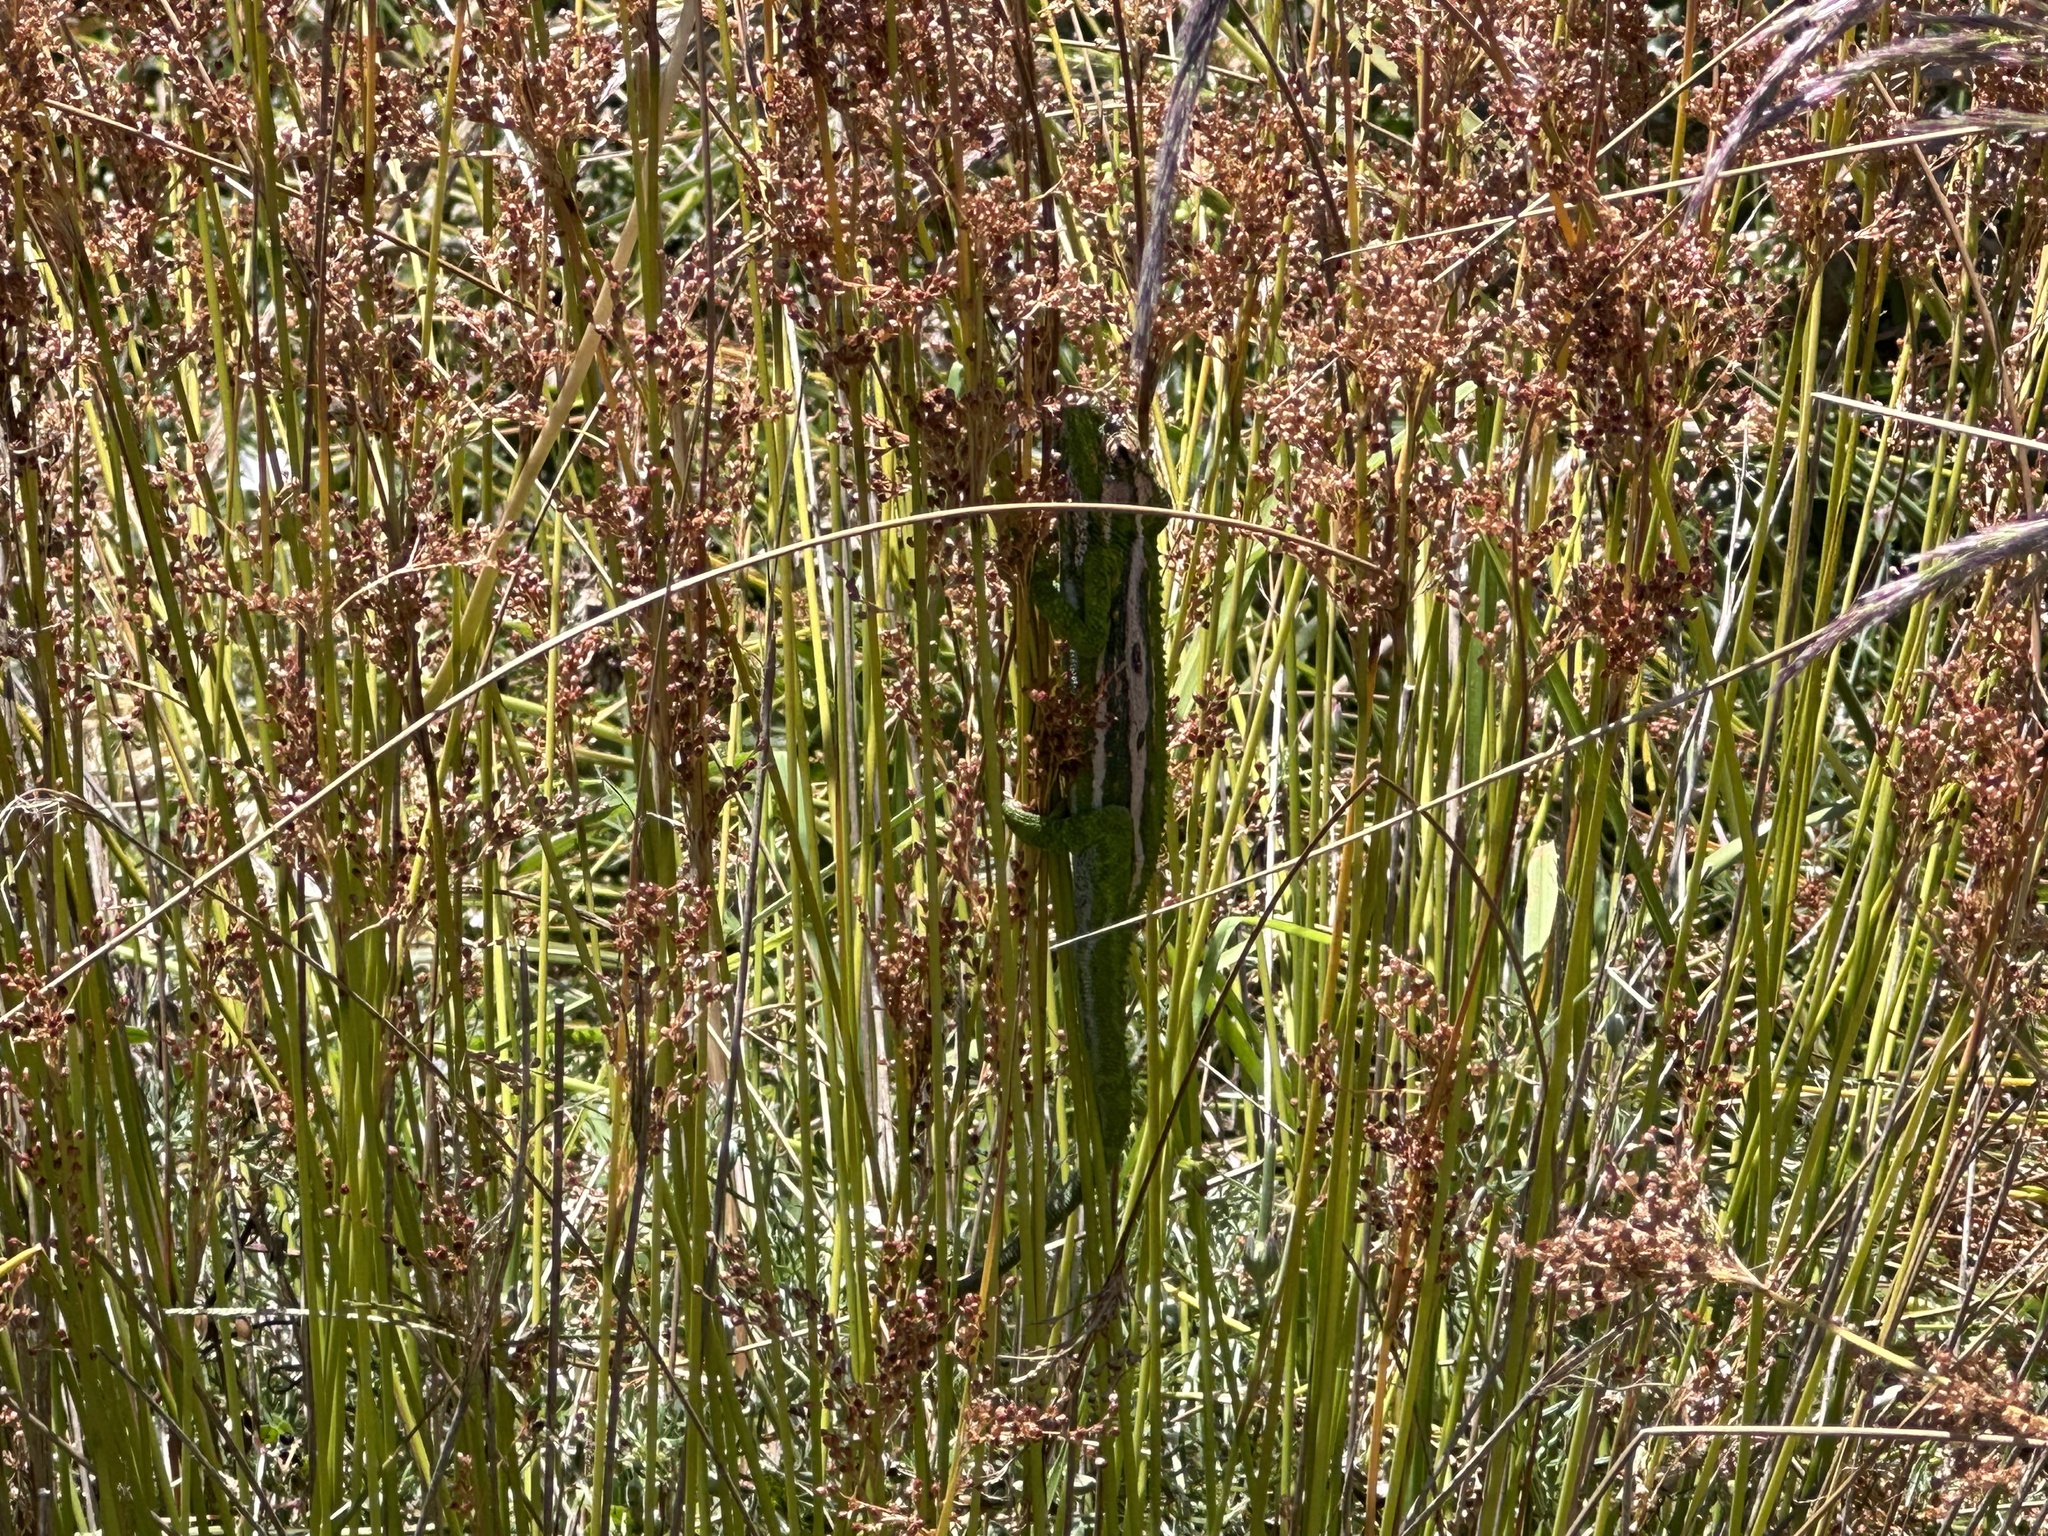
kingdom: Animalia
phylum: Chordata
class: Squamata
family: Chamaeleonidae
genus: Bradypodion
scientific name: Bradypodion pumilum
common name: Cape dwarf chameleon
